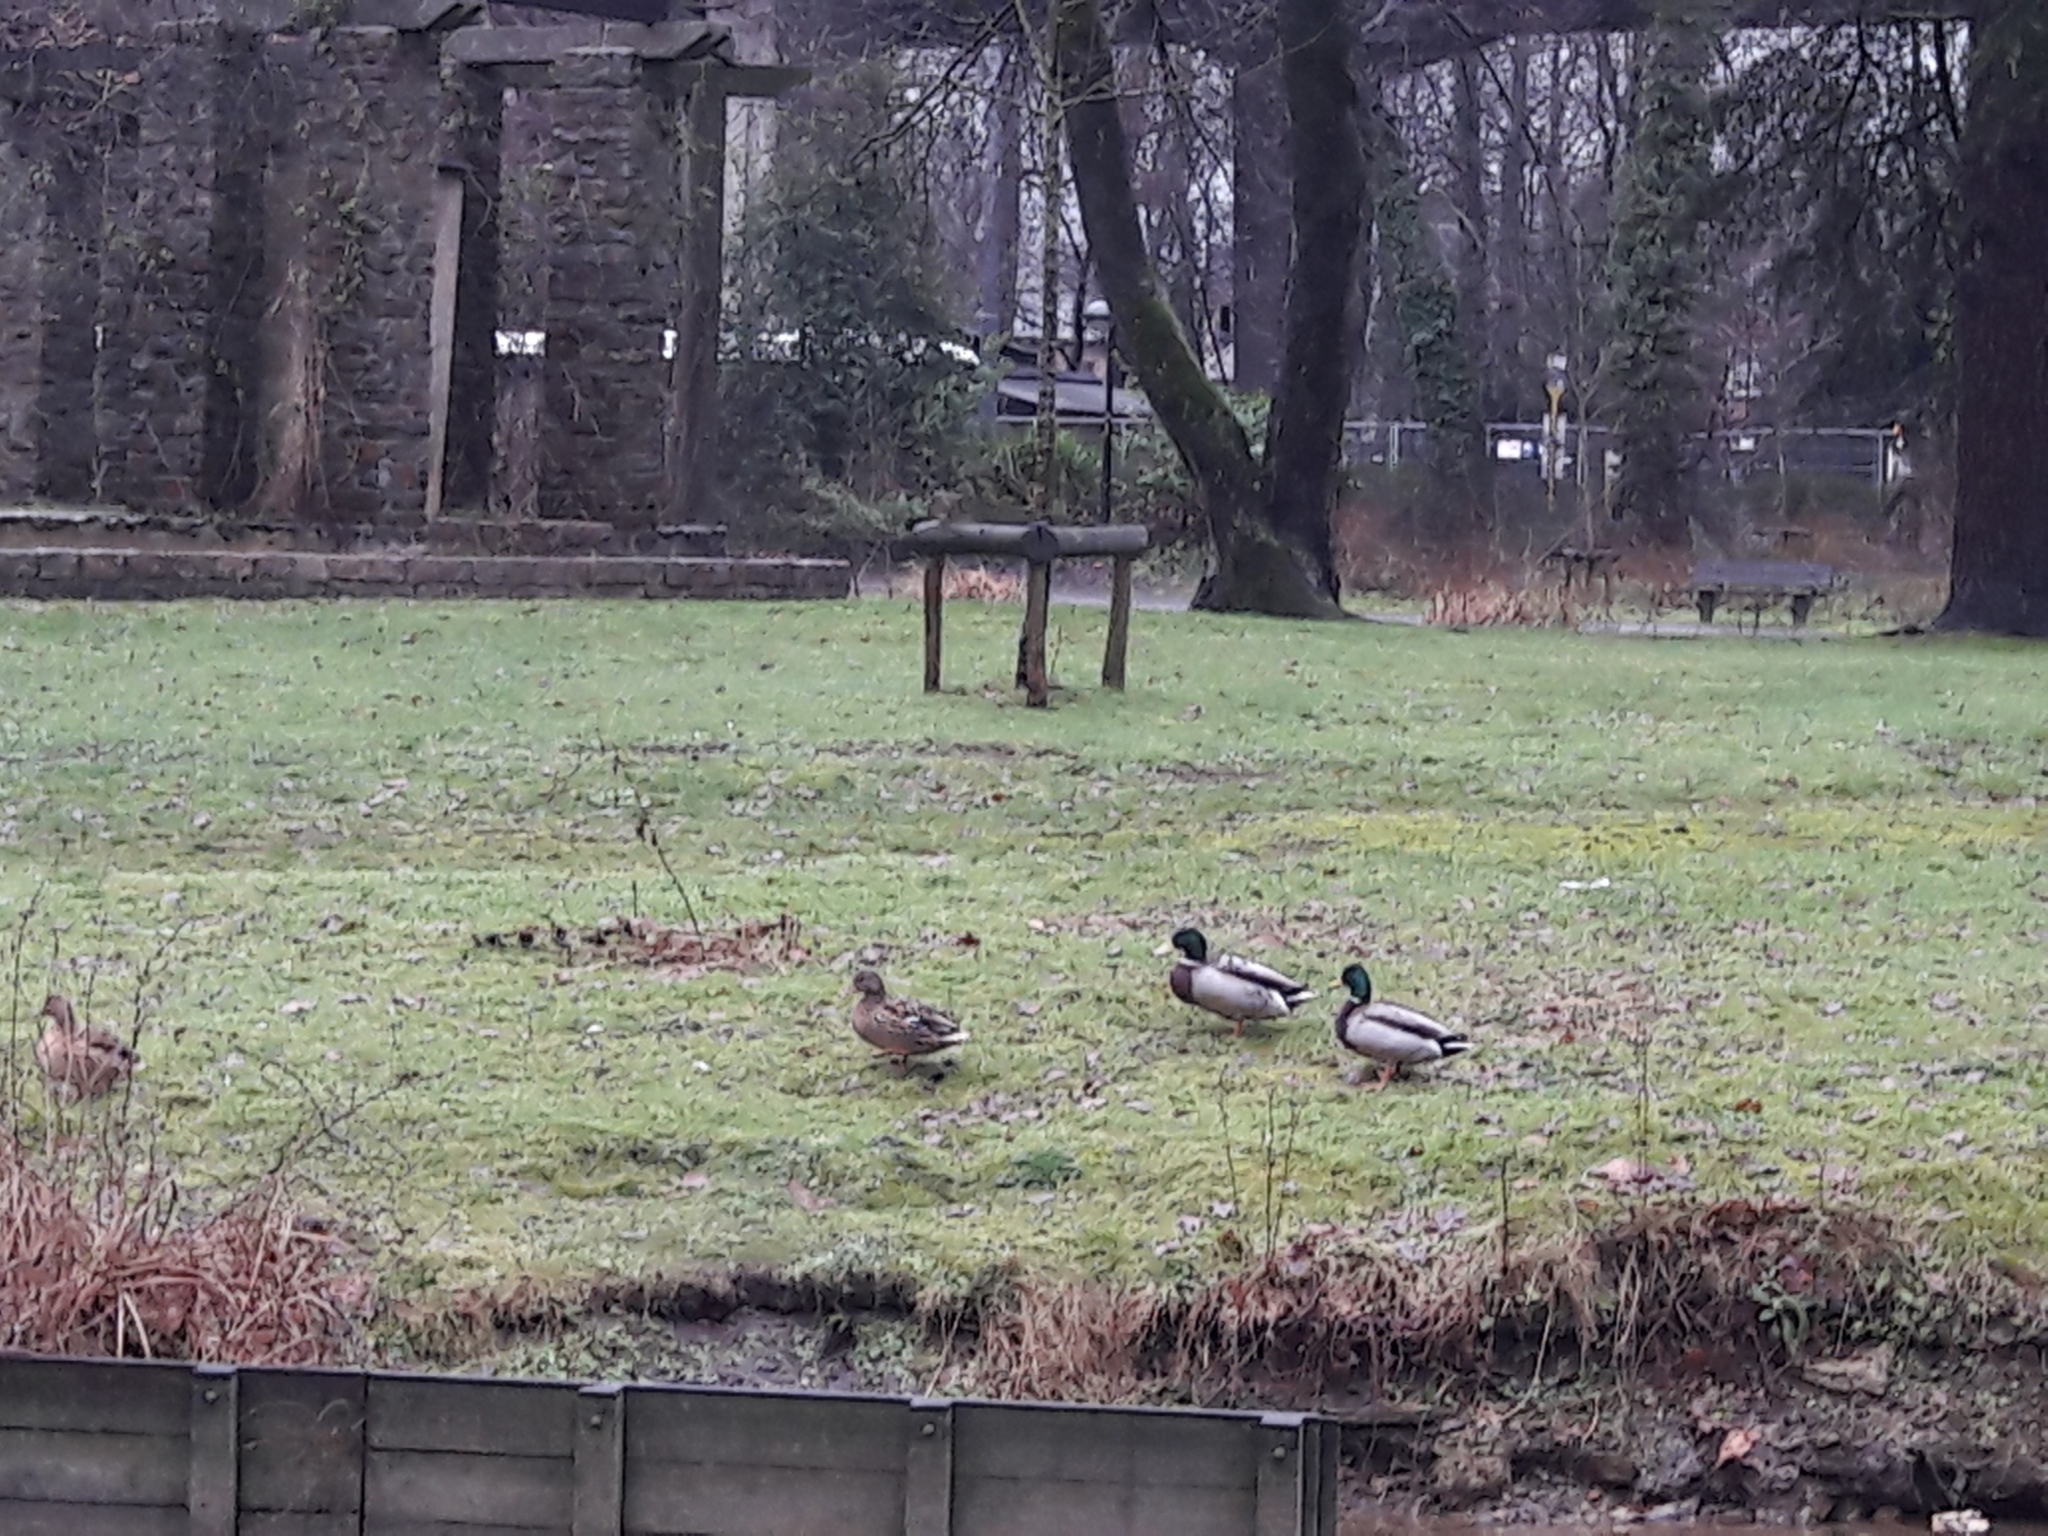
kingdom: Animalia
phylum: Chordata
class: Aves
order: Anseriformes
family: Anatidae
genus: Anas
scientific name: Anas platyrhynchos
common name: Mallard
